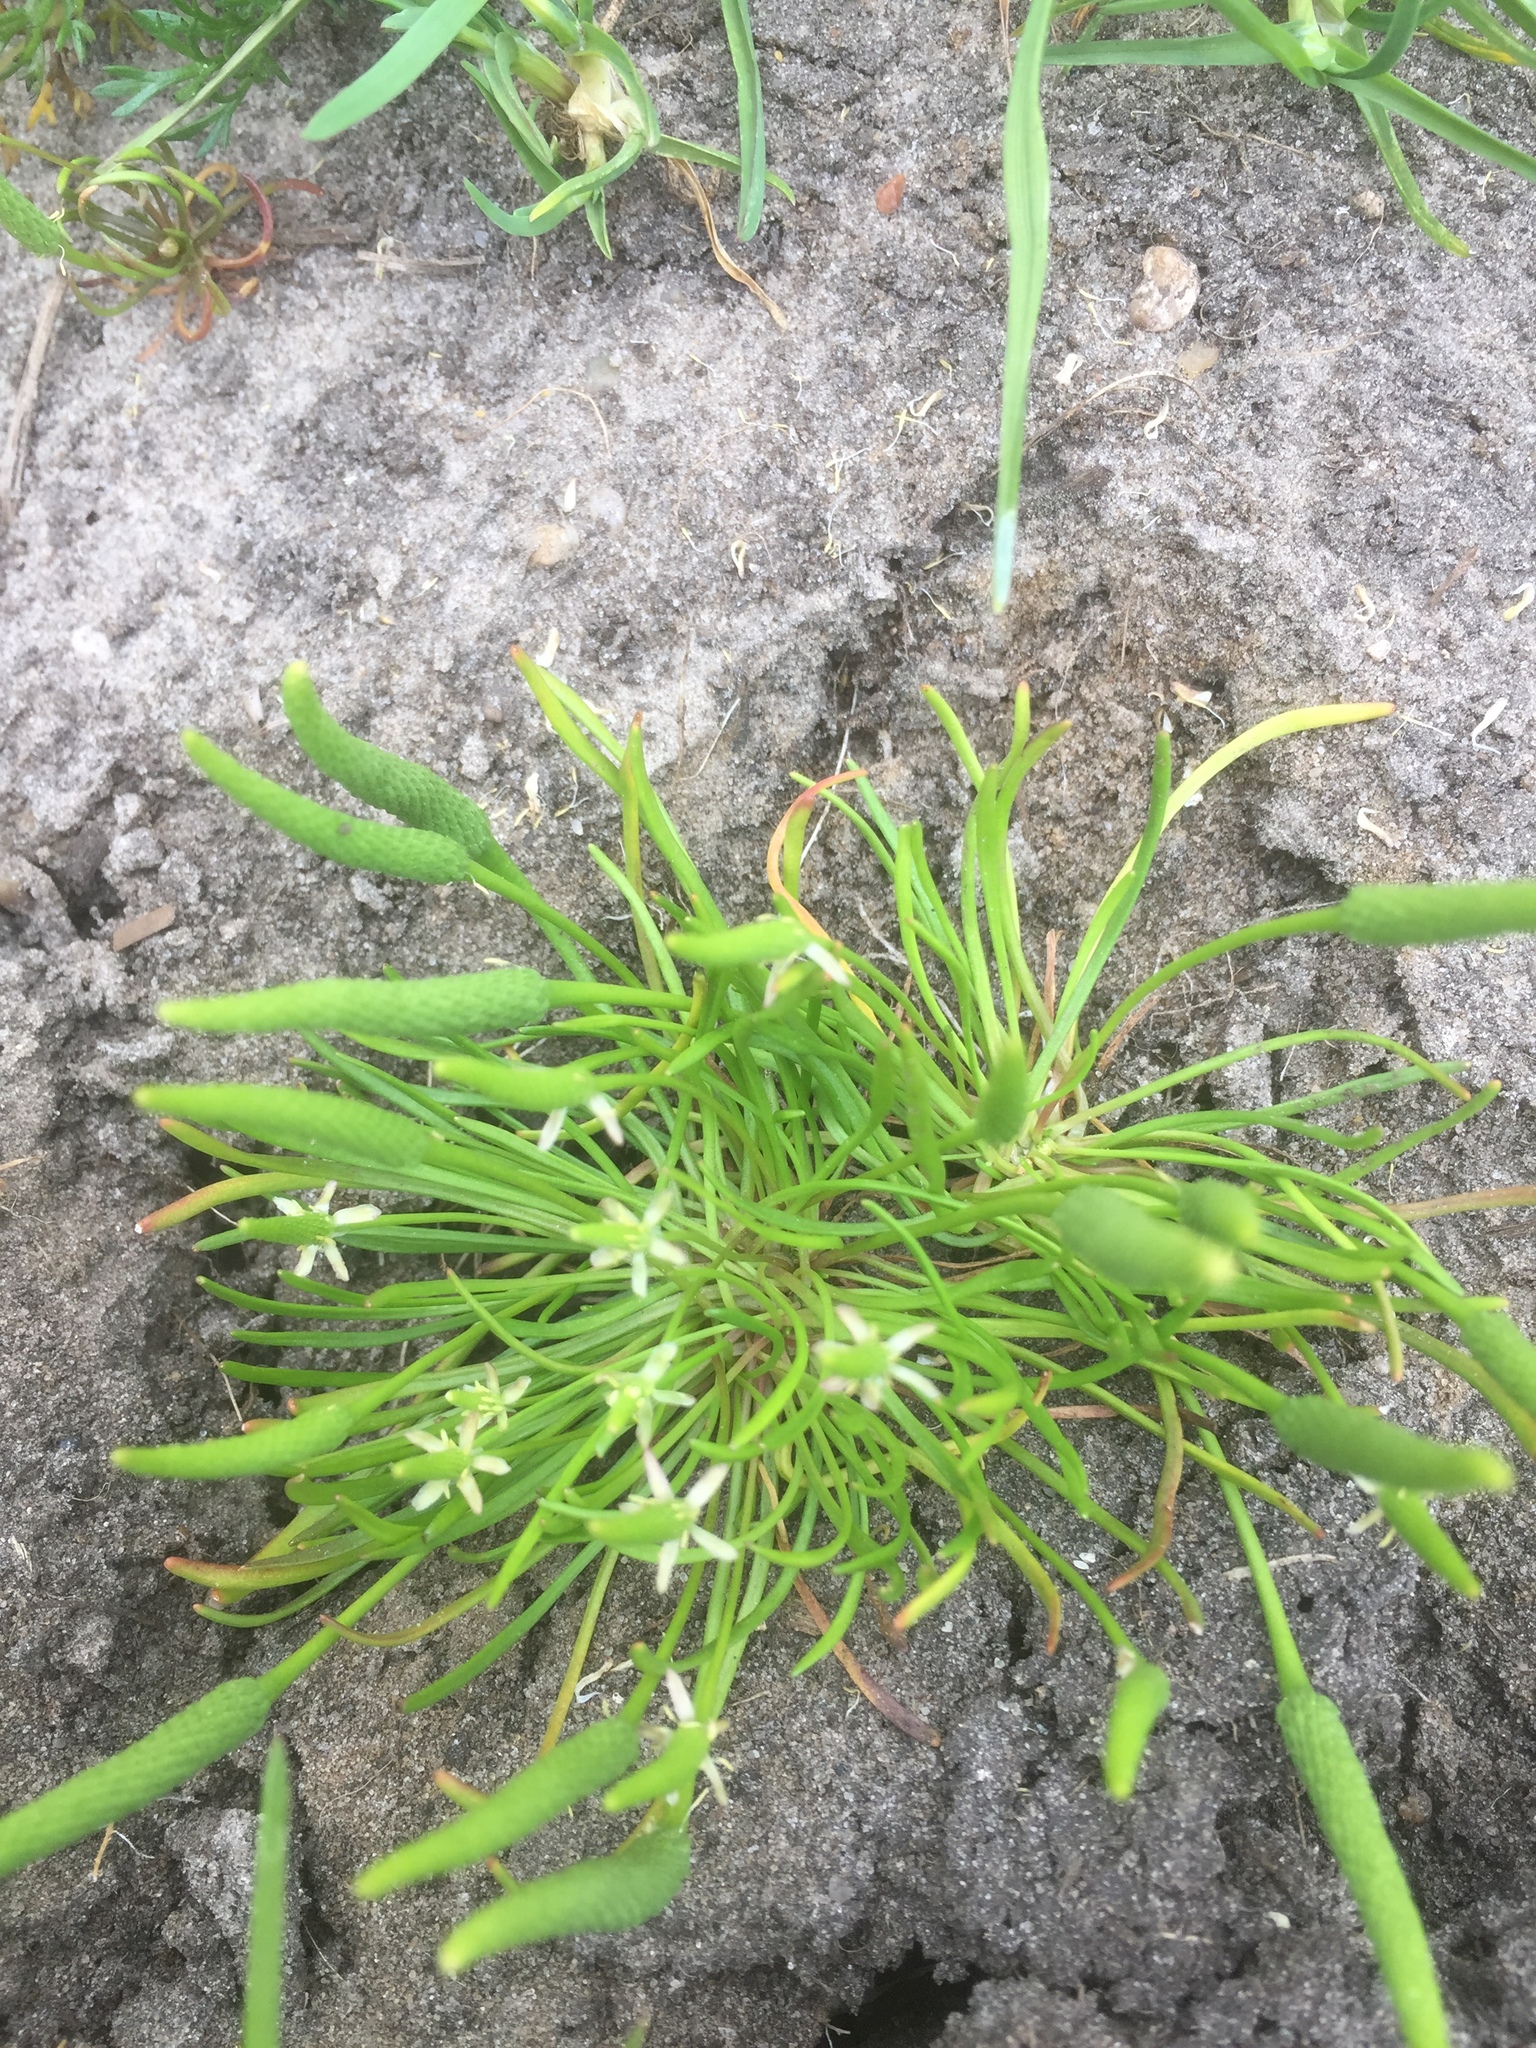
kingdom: Plantae
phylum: Tracheophyta
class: Magnoliopsida
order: Ranunculales
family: Ranunculaceae
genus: Myosurus
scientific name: Myosurus minimus
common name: Mousetail
